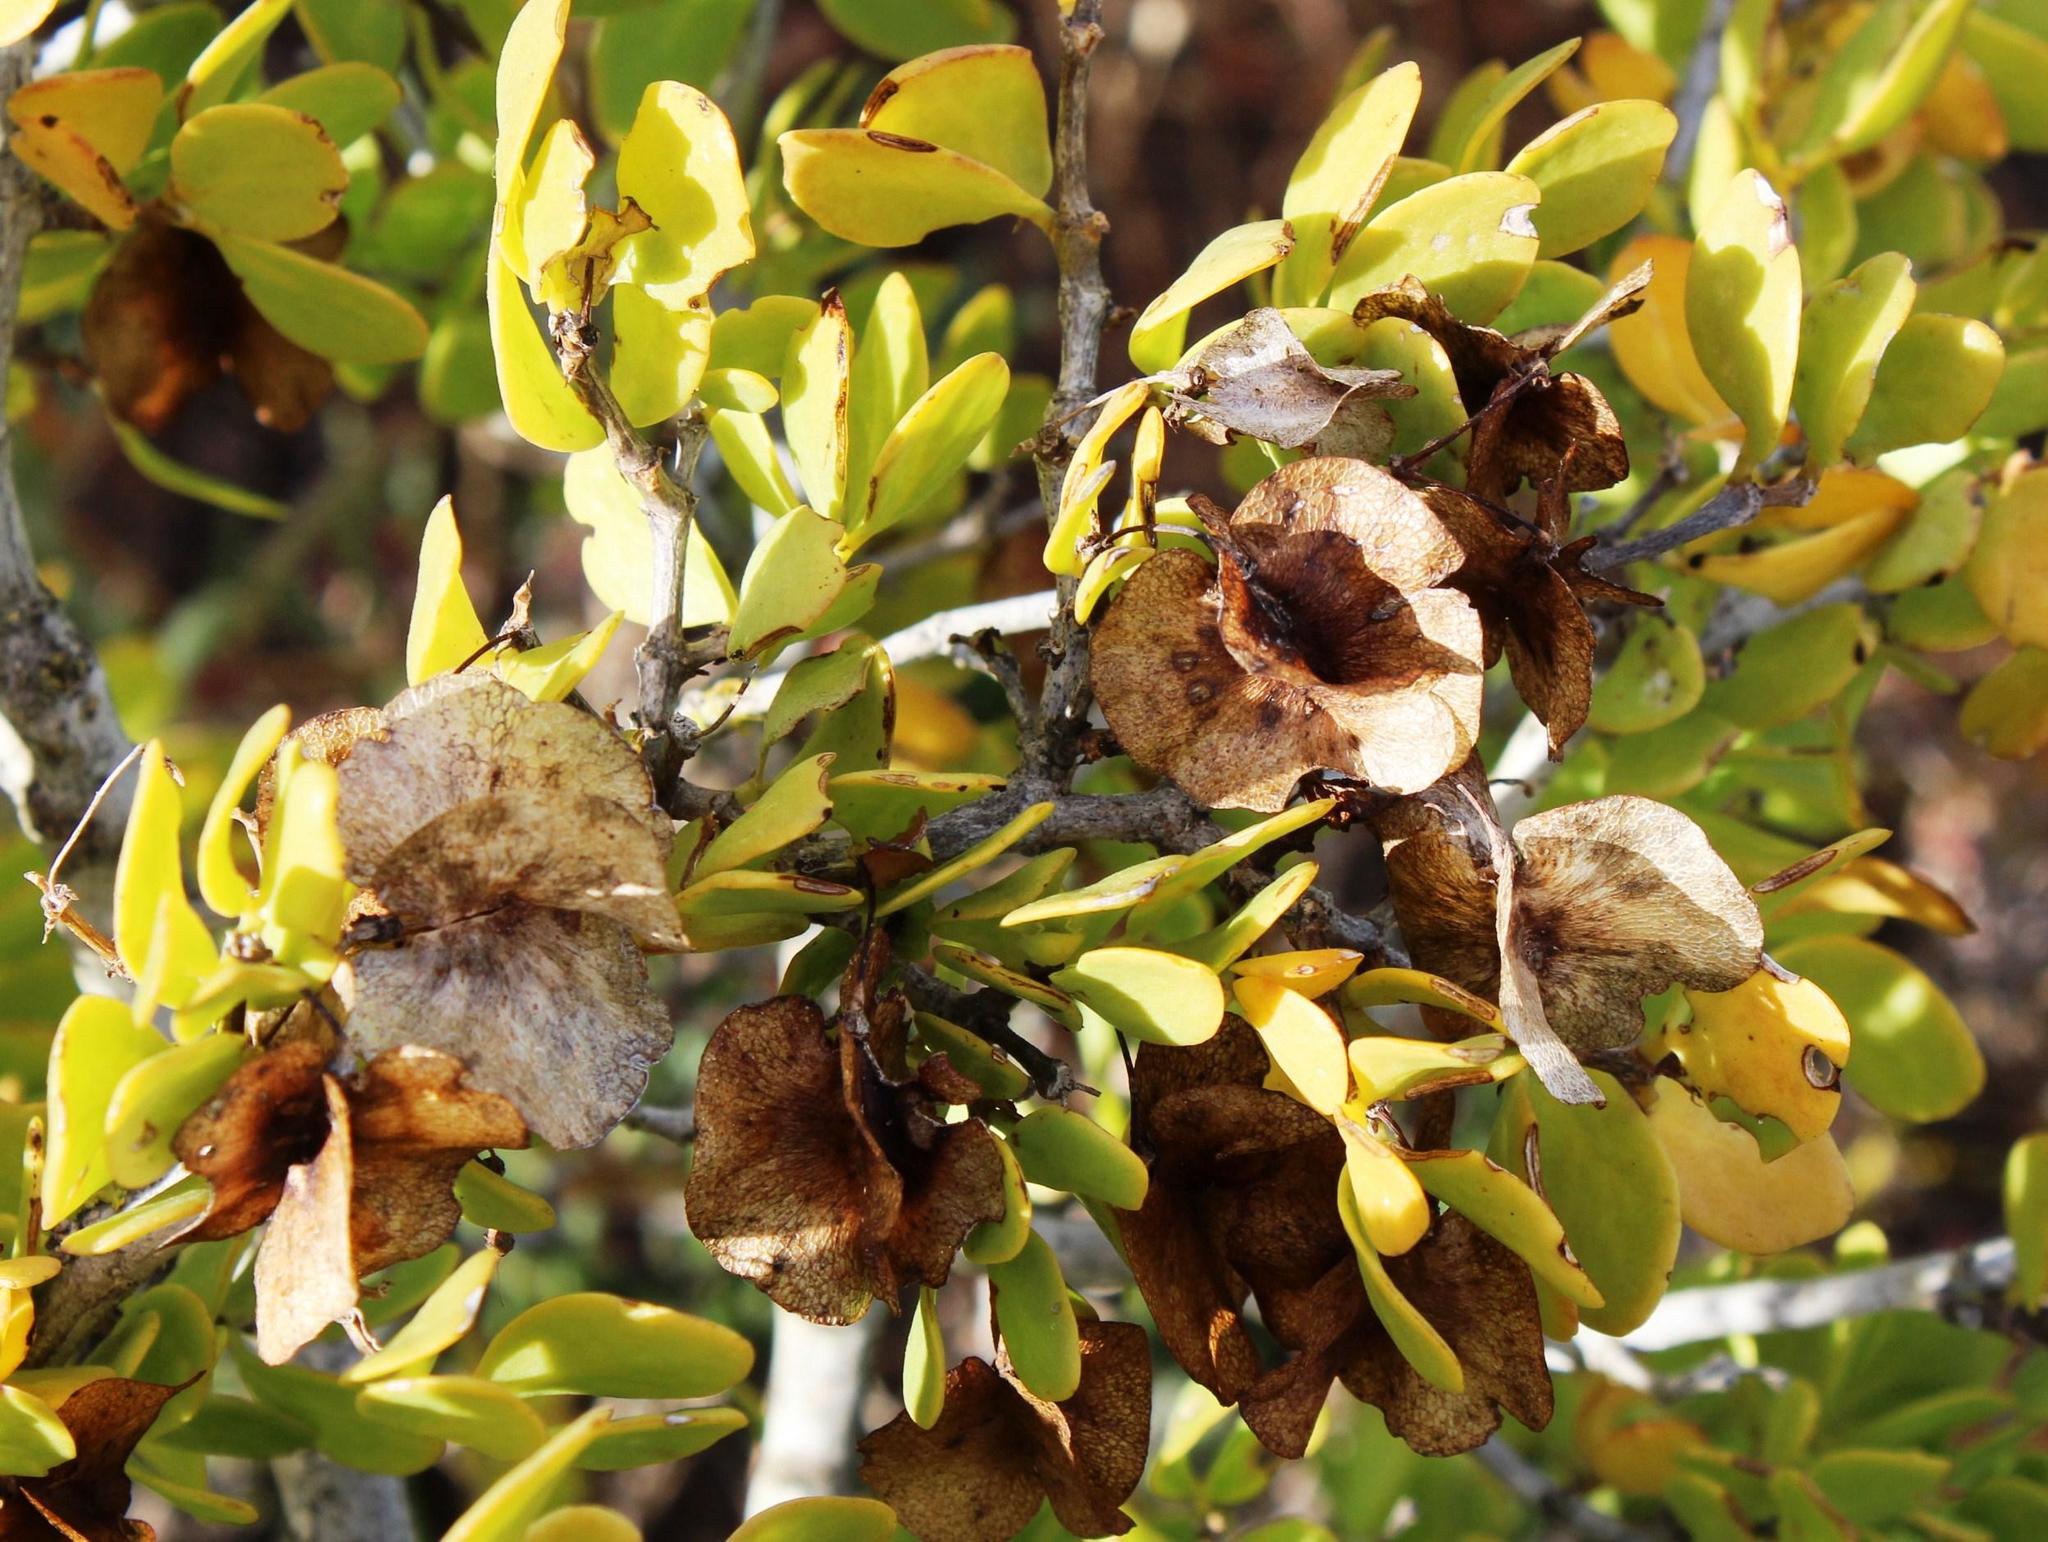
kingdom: Plantae
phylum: Tracheophyta
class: Magnoliopsida
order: Zygophyllales
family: Zygophyllaceae
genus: Roepera
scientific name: Roepera morgsana
